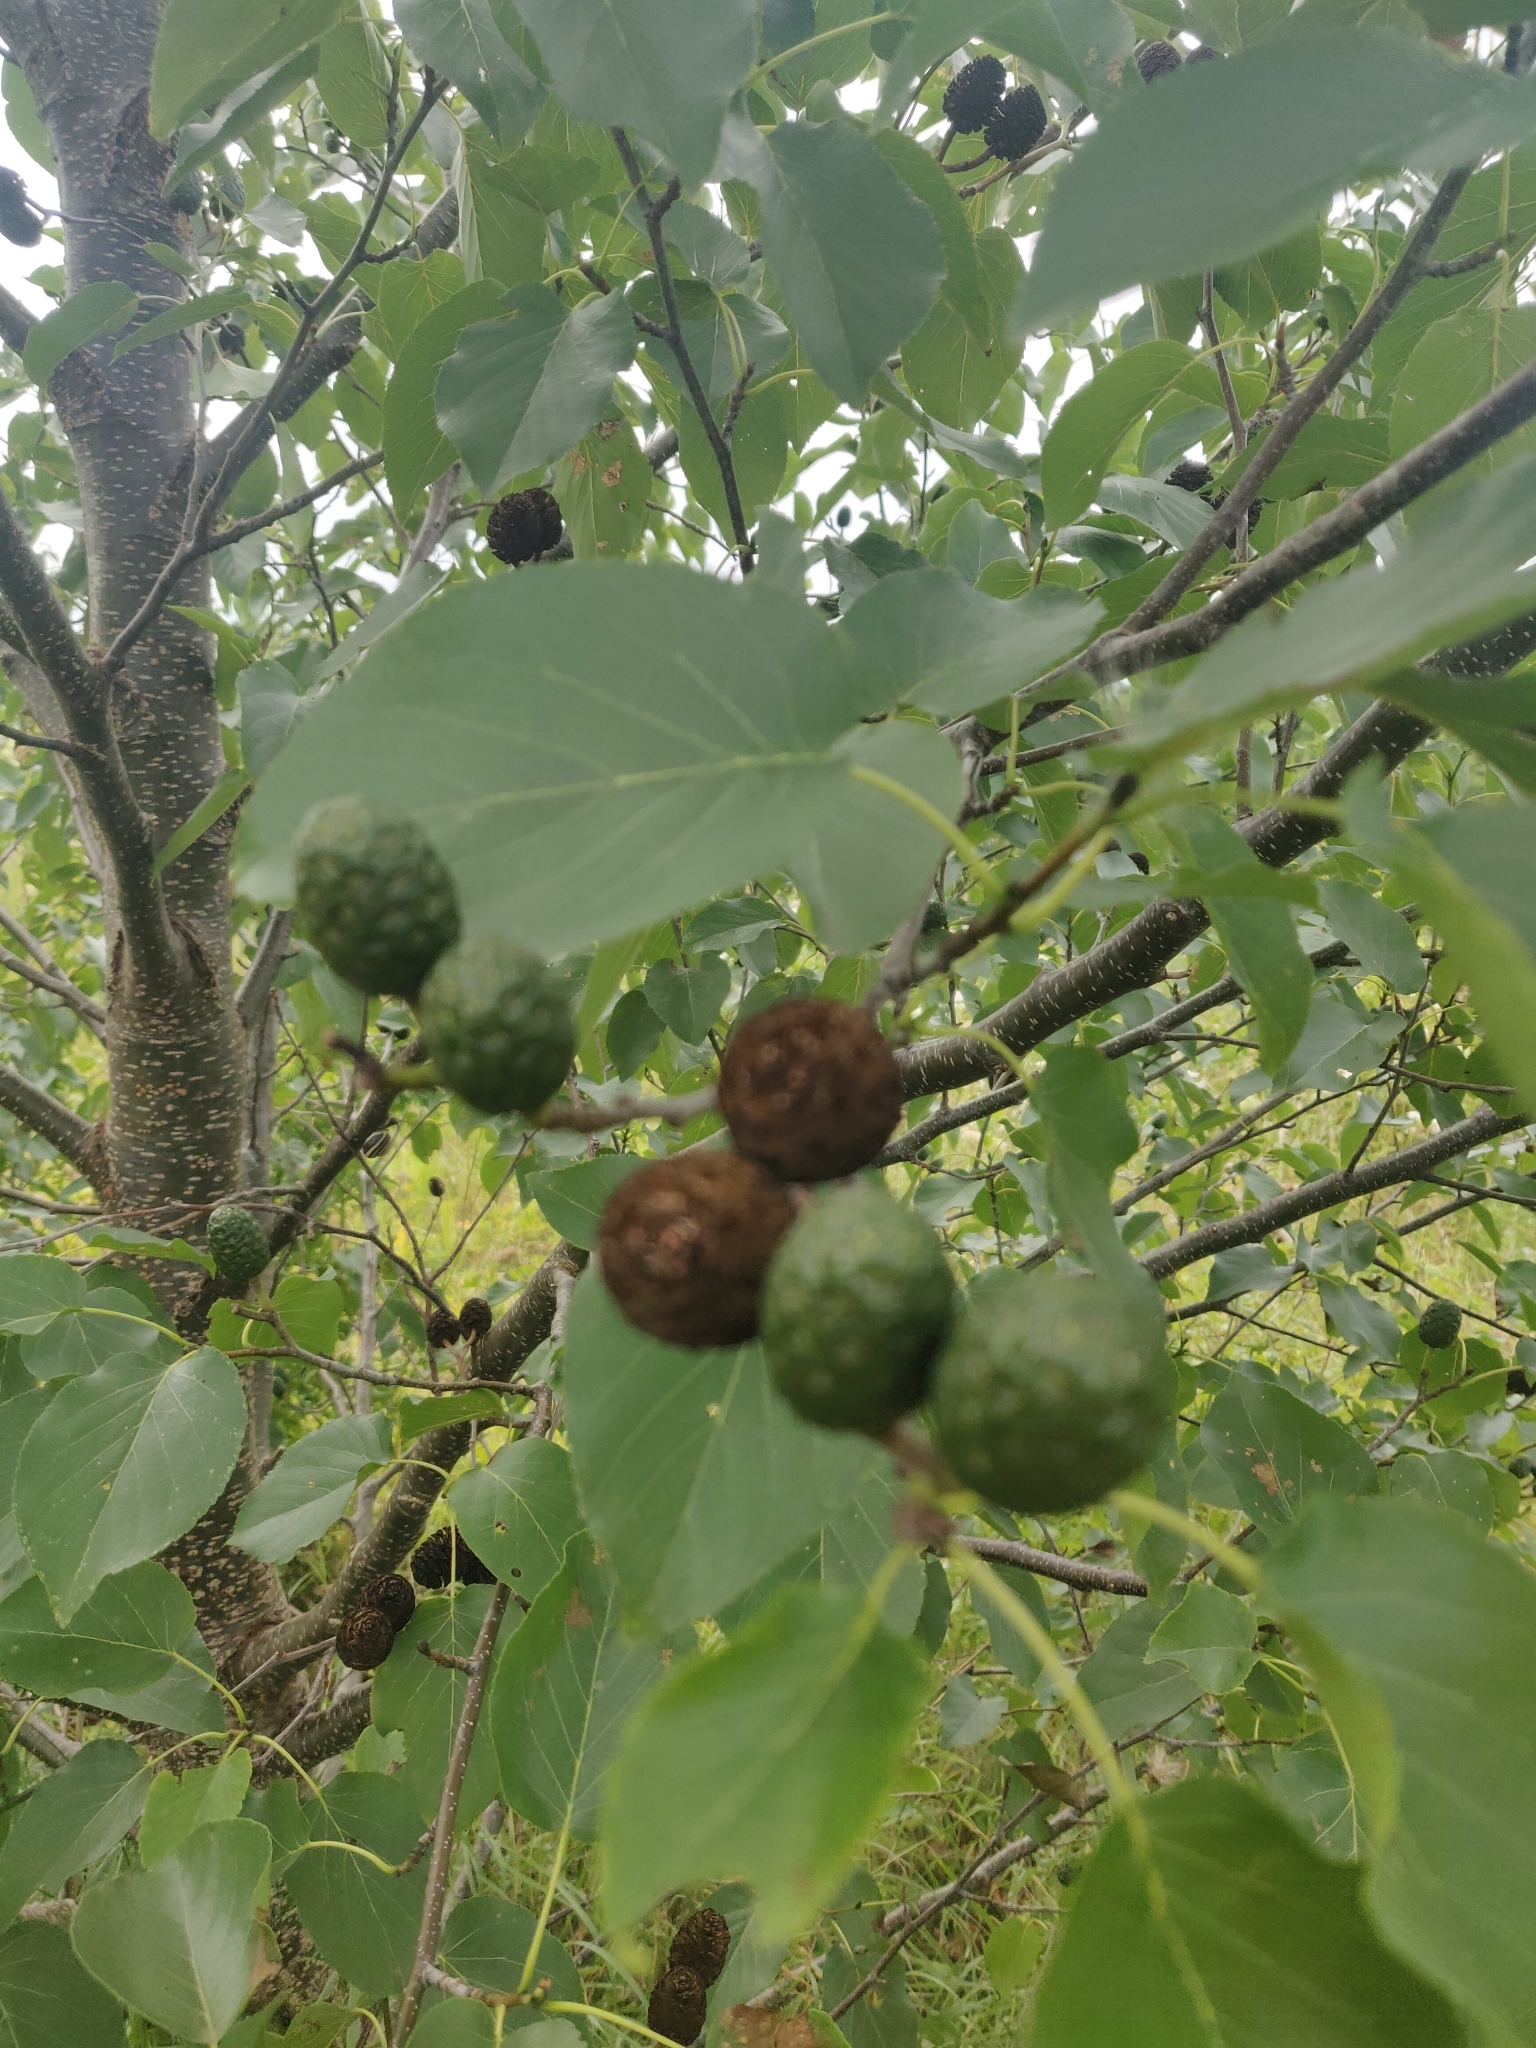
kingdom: Plantae
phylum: Tracheophyta
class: Magnoliopsida
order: Fagales
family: Betulaceae
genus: Alnus
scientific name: Alnus cordata
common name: Italian alder
